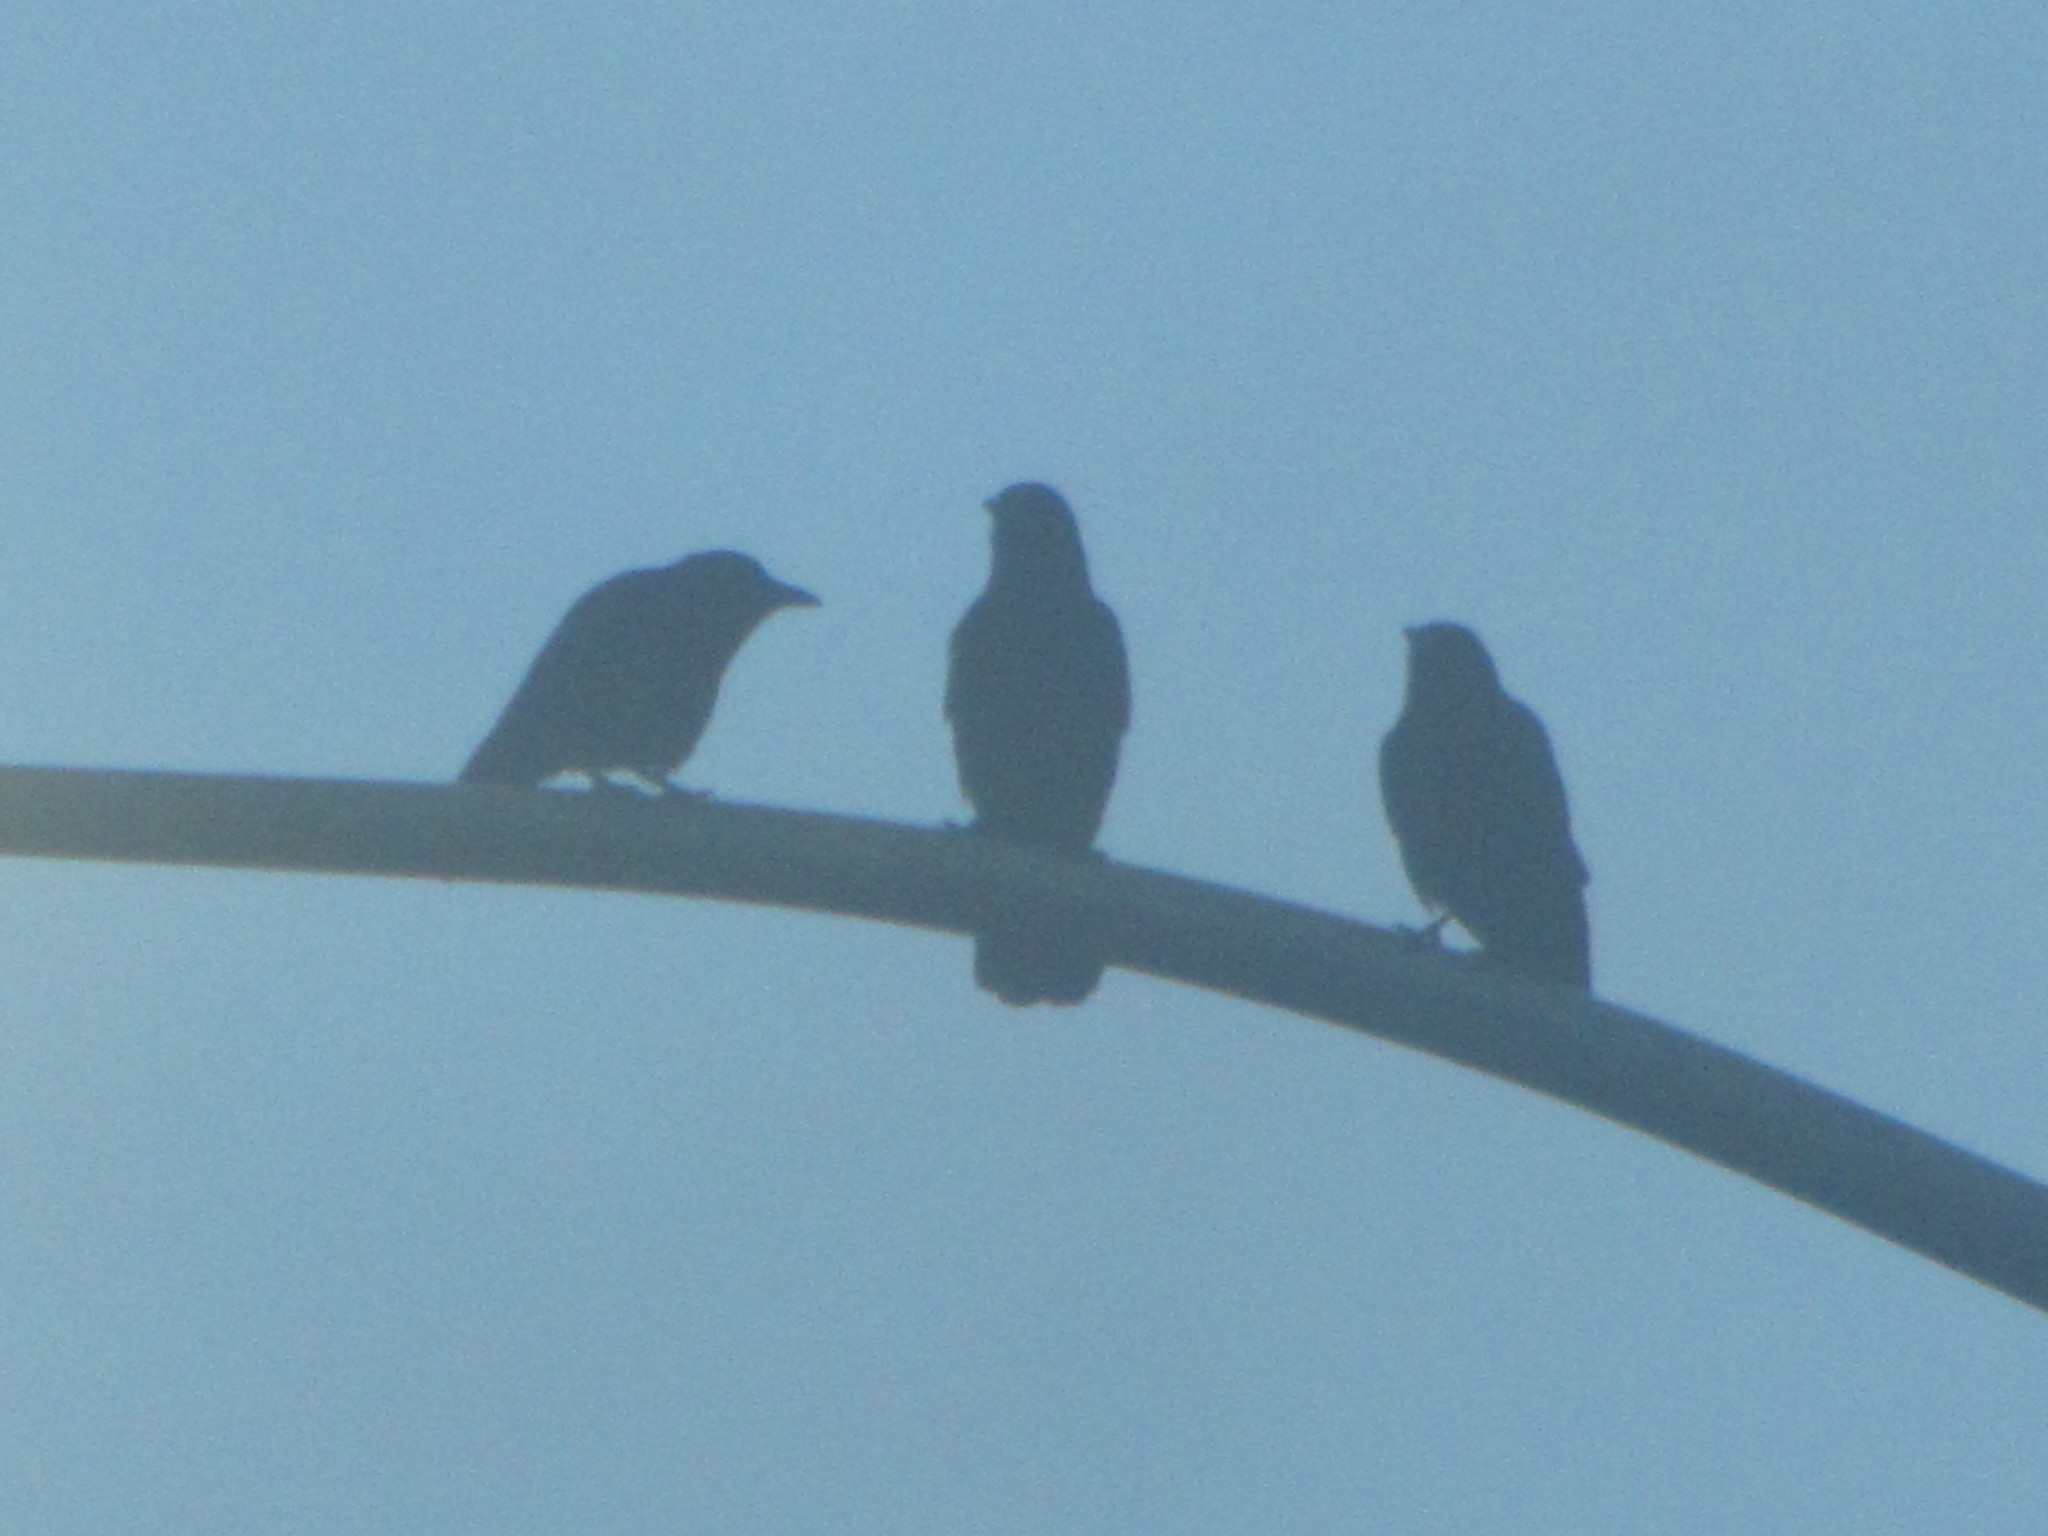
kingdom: Animalia
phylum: Chordata
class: Aves
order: Passeriformes
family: Corvidae
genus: Corvus
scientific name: Corvus brachyrhynchos
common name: American crow
